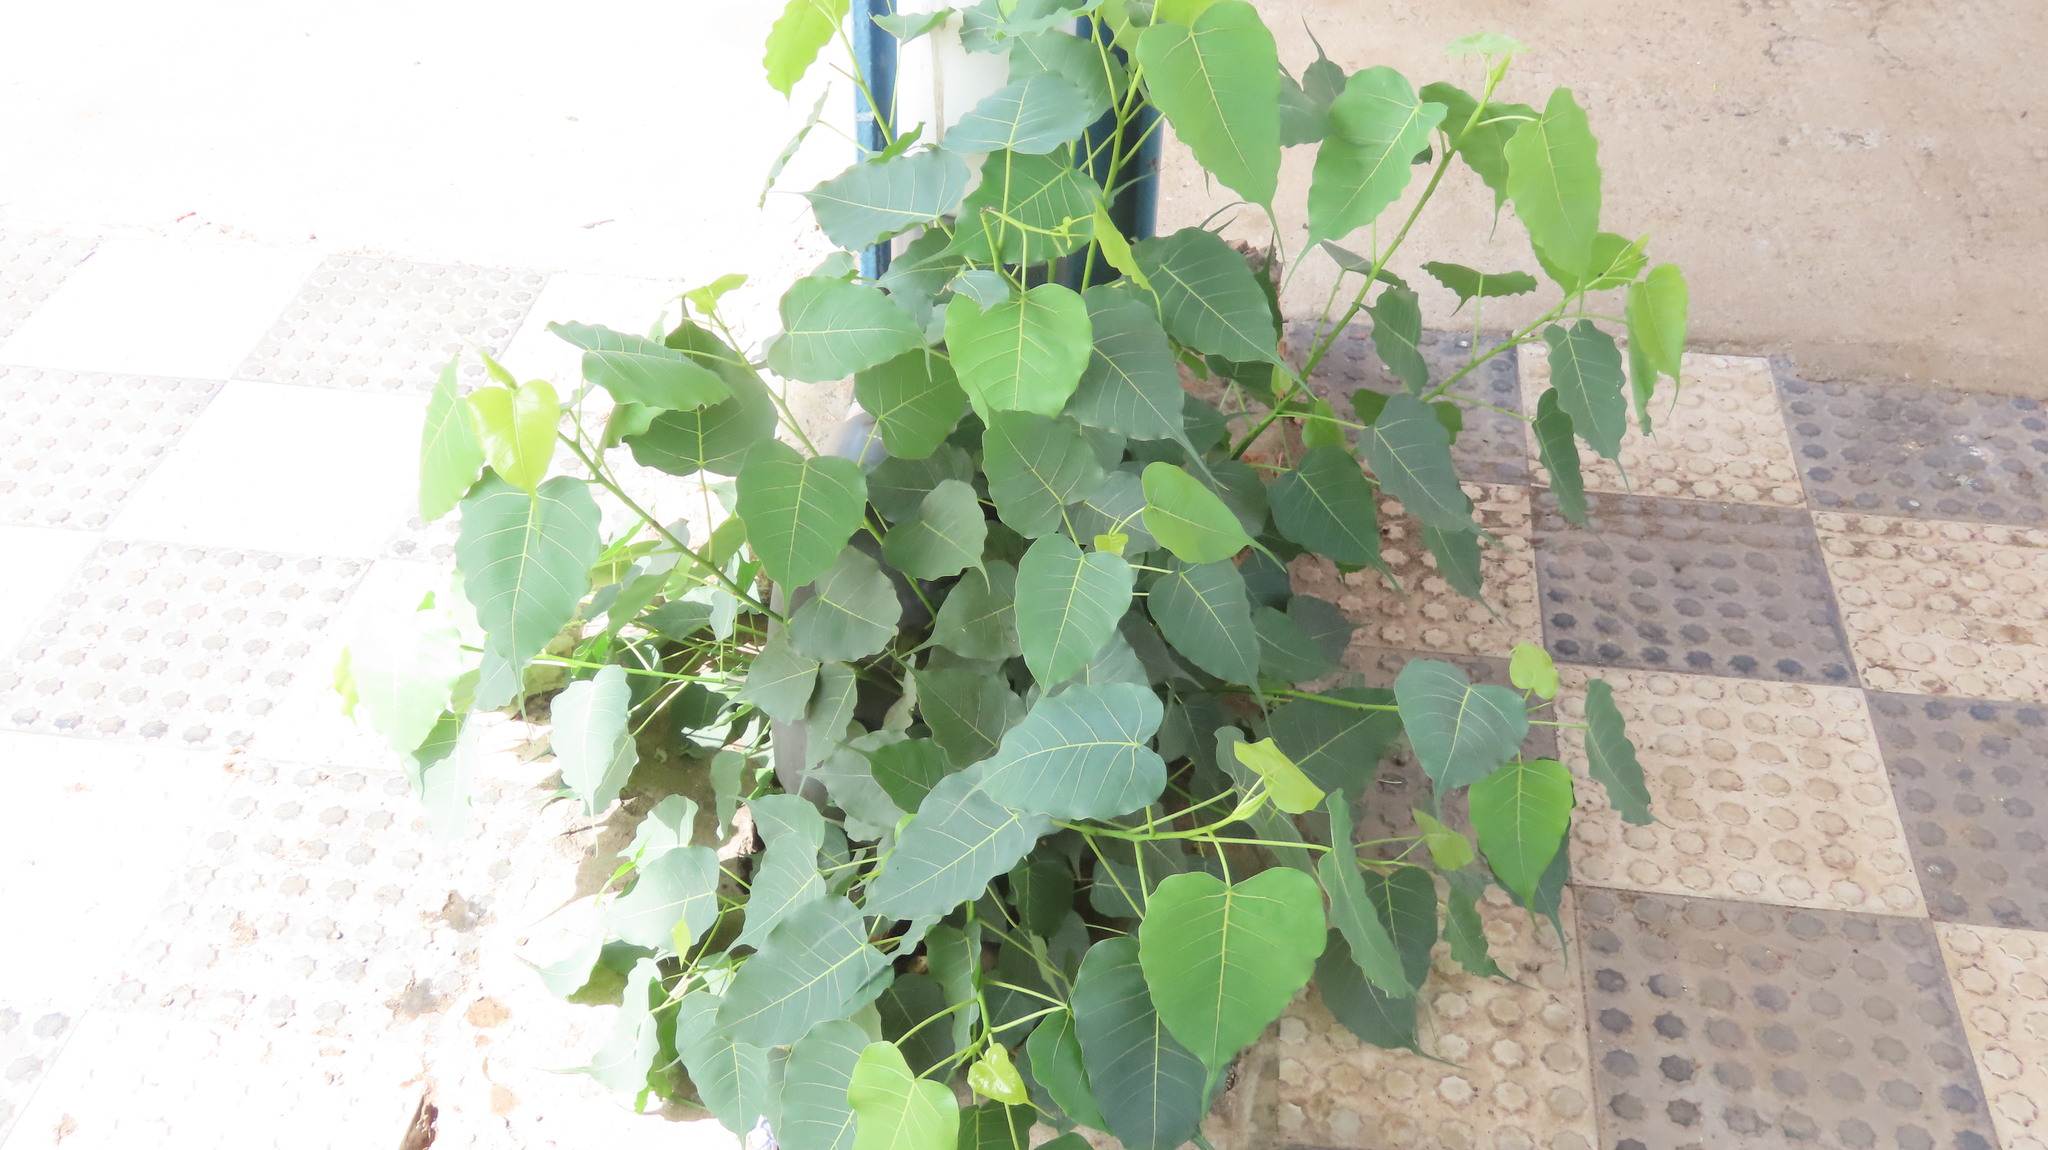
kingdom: Plantae
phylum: Tracheophyta
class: Magnoliopsida
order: Rosales
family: Moraceae
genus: Ficus
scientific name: Ficus religiosa
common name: Bodhi tree
